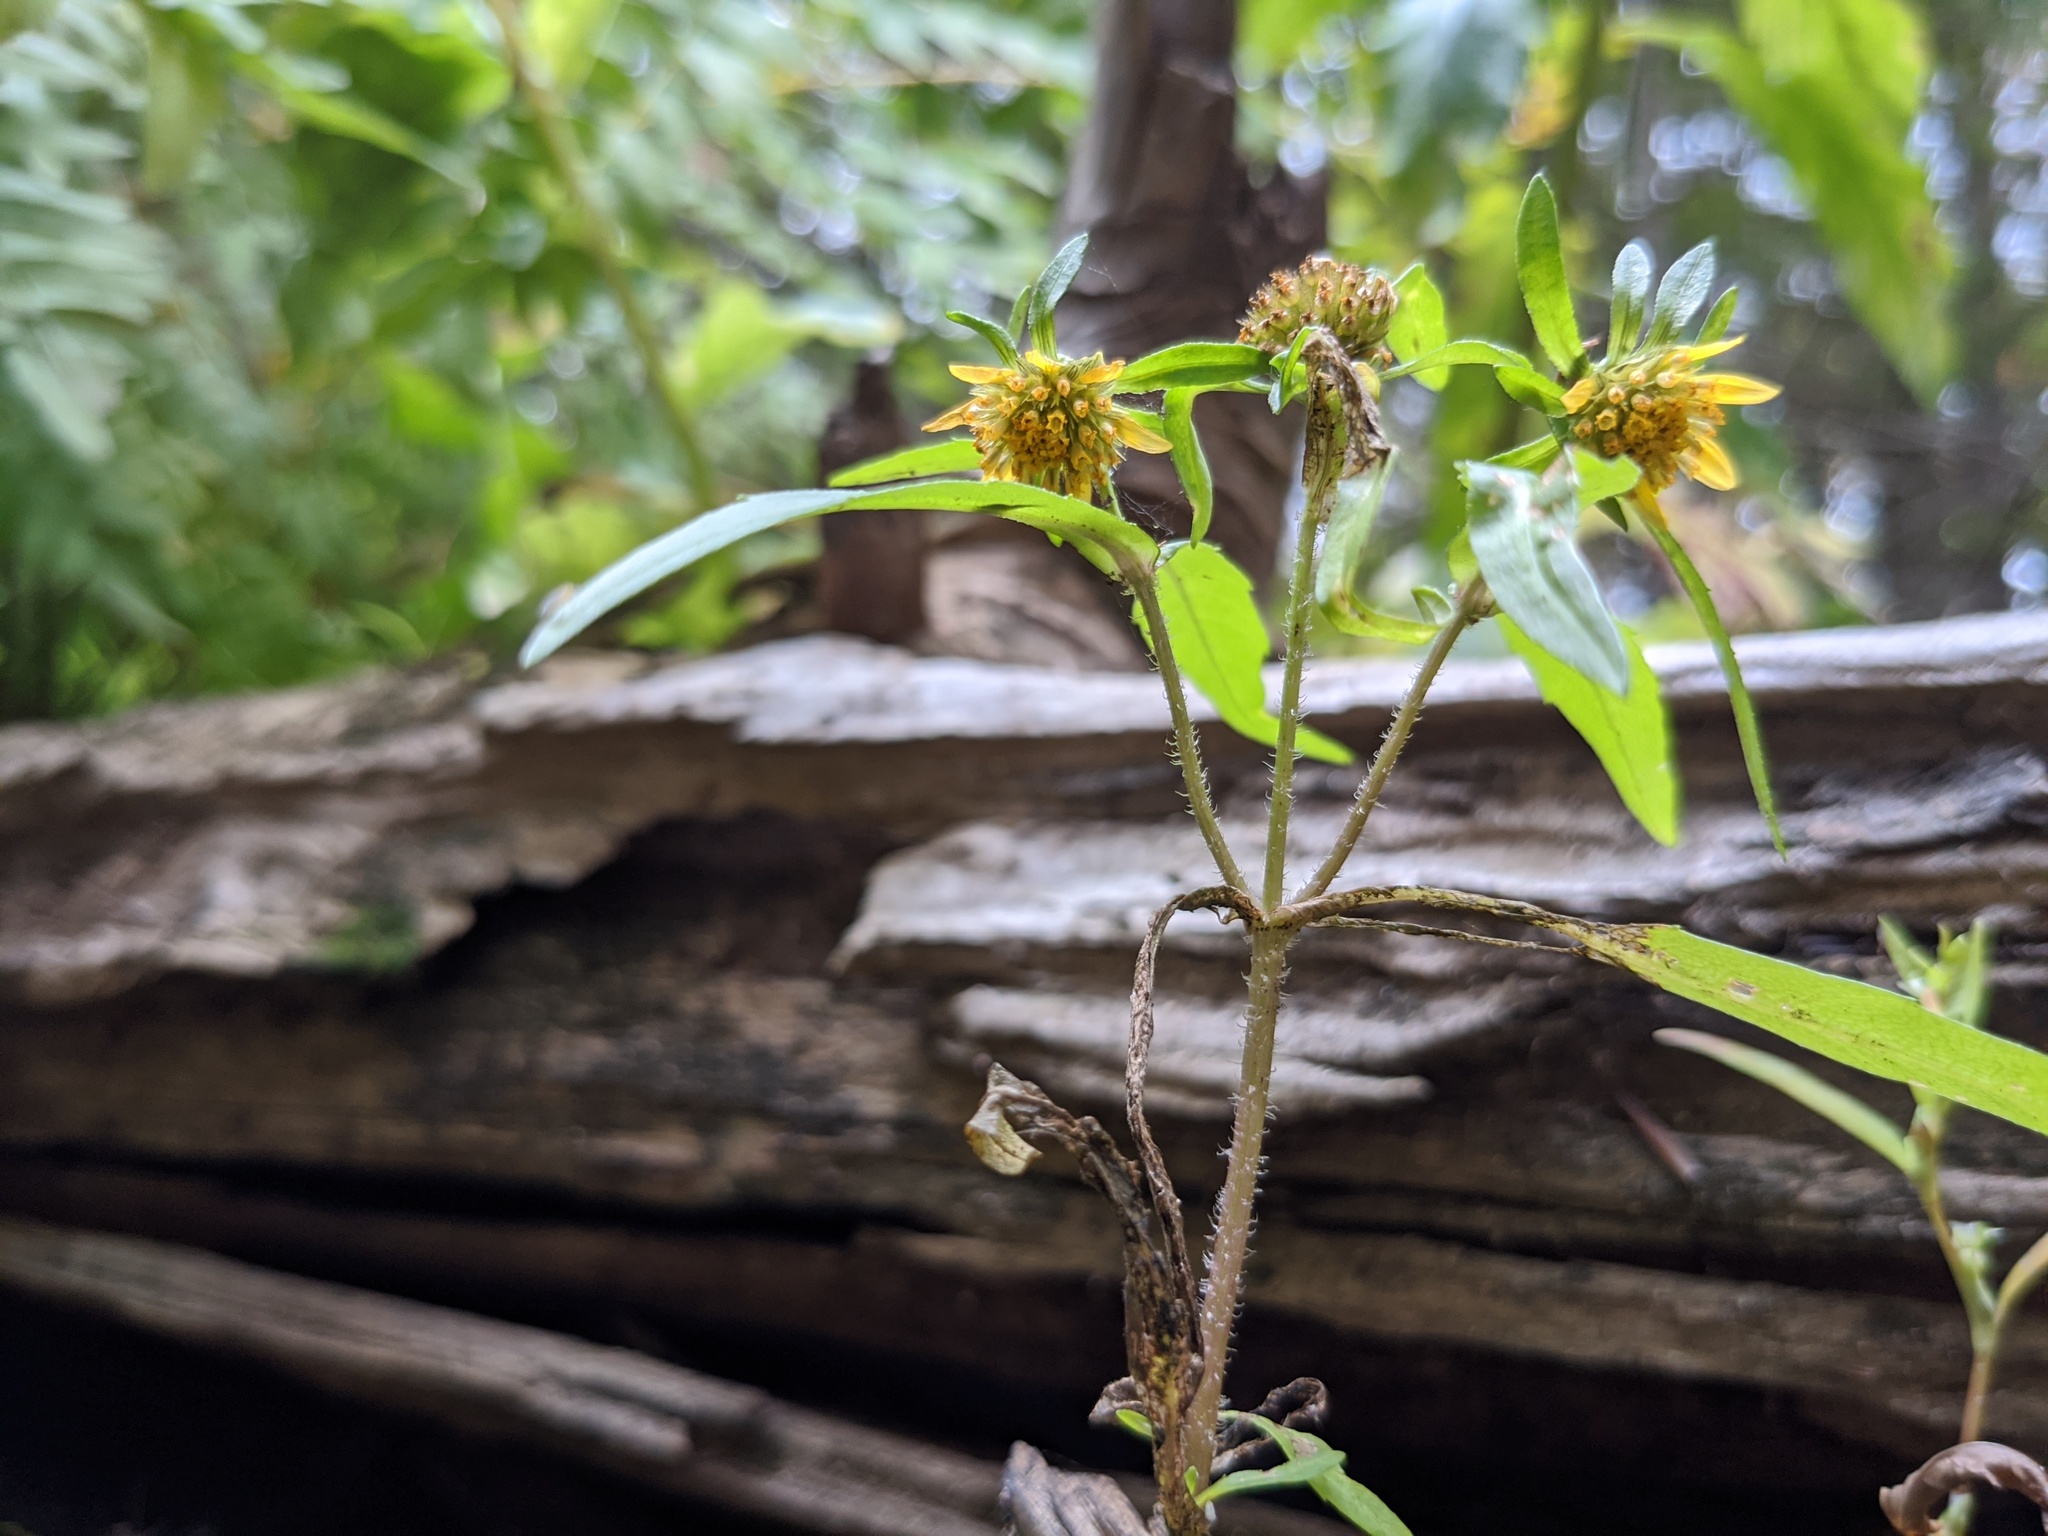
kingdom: Plantae
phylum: Tracheophyta
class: Magnoliopsida
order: Asterales
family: Asteraceae
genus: Bidens
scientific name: Bidens cernua
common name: Nodding bur-marigold
